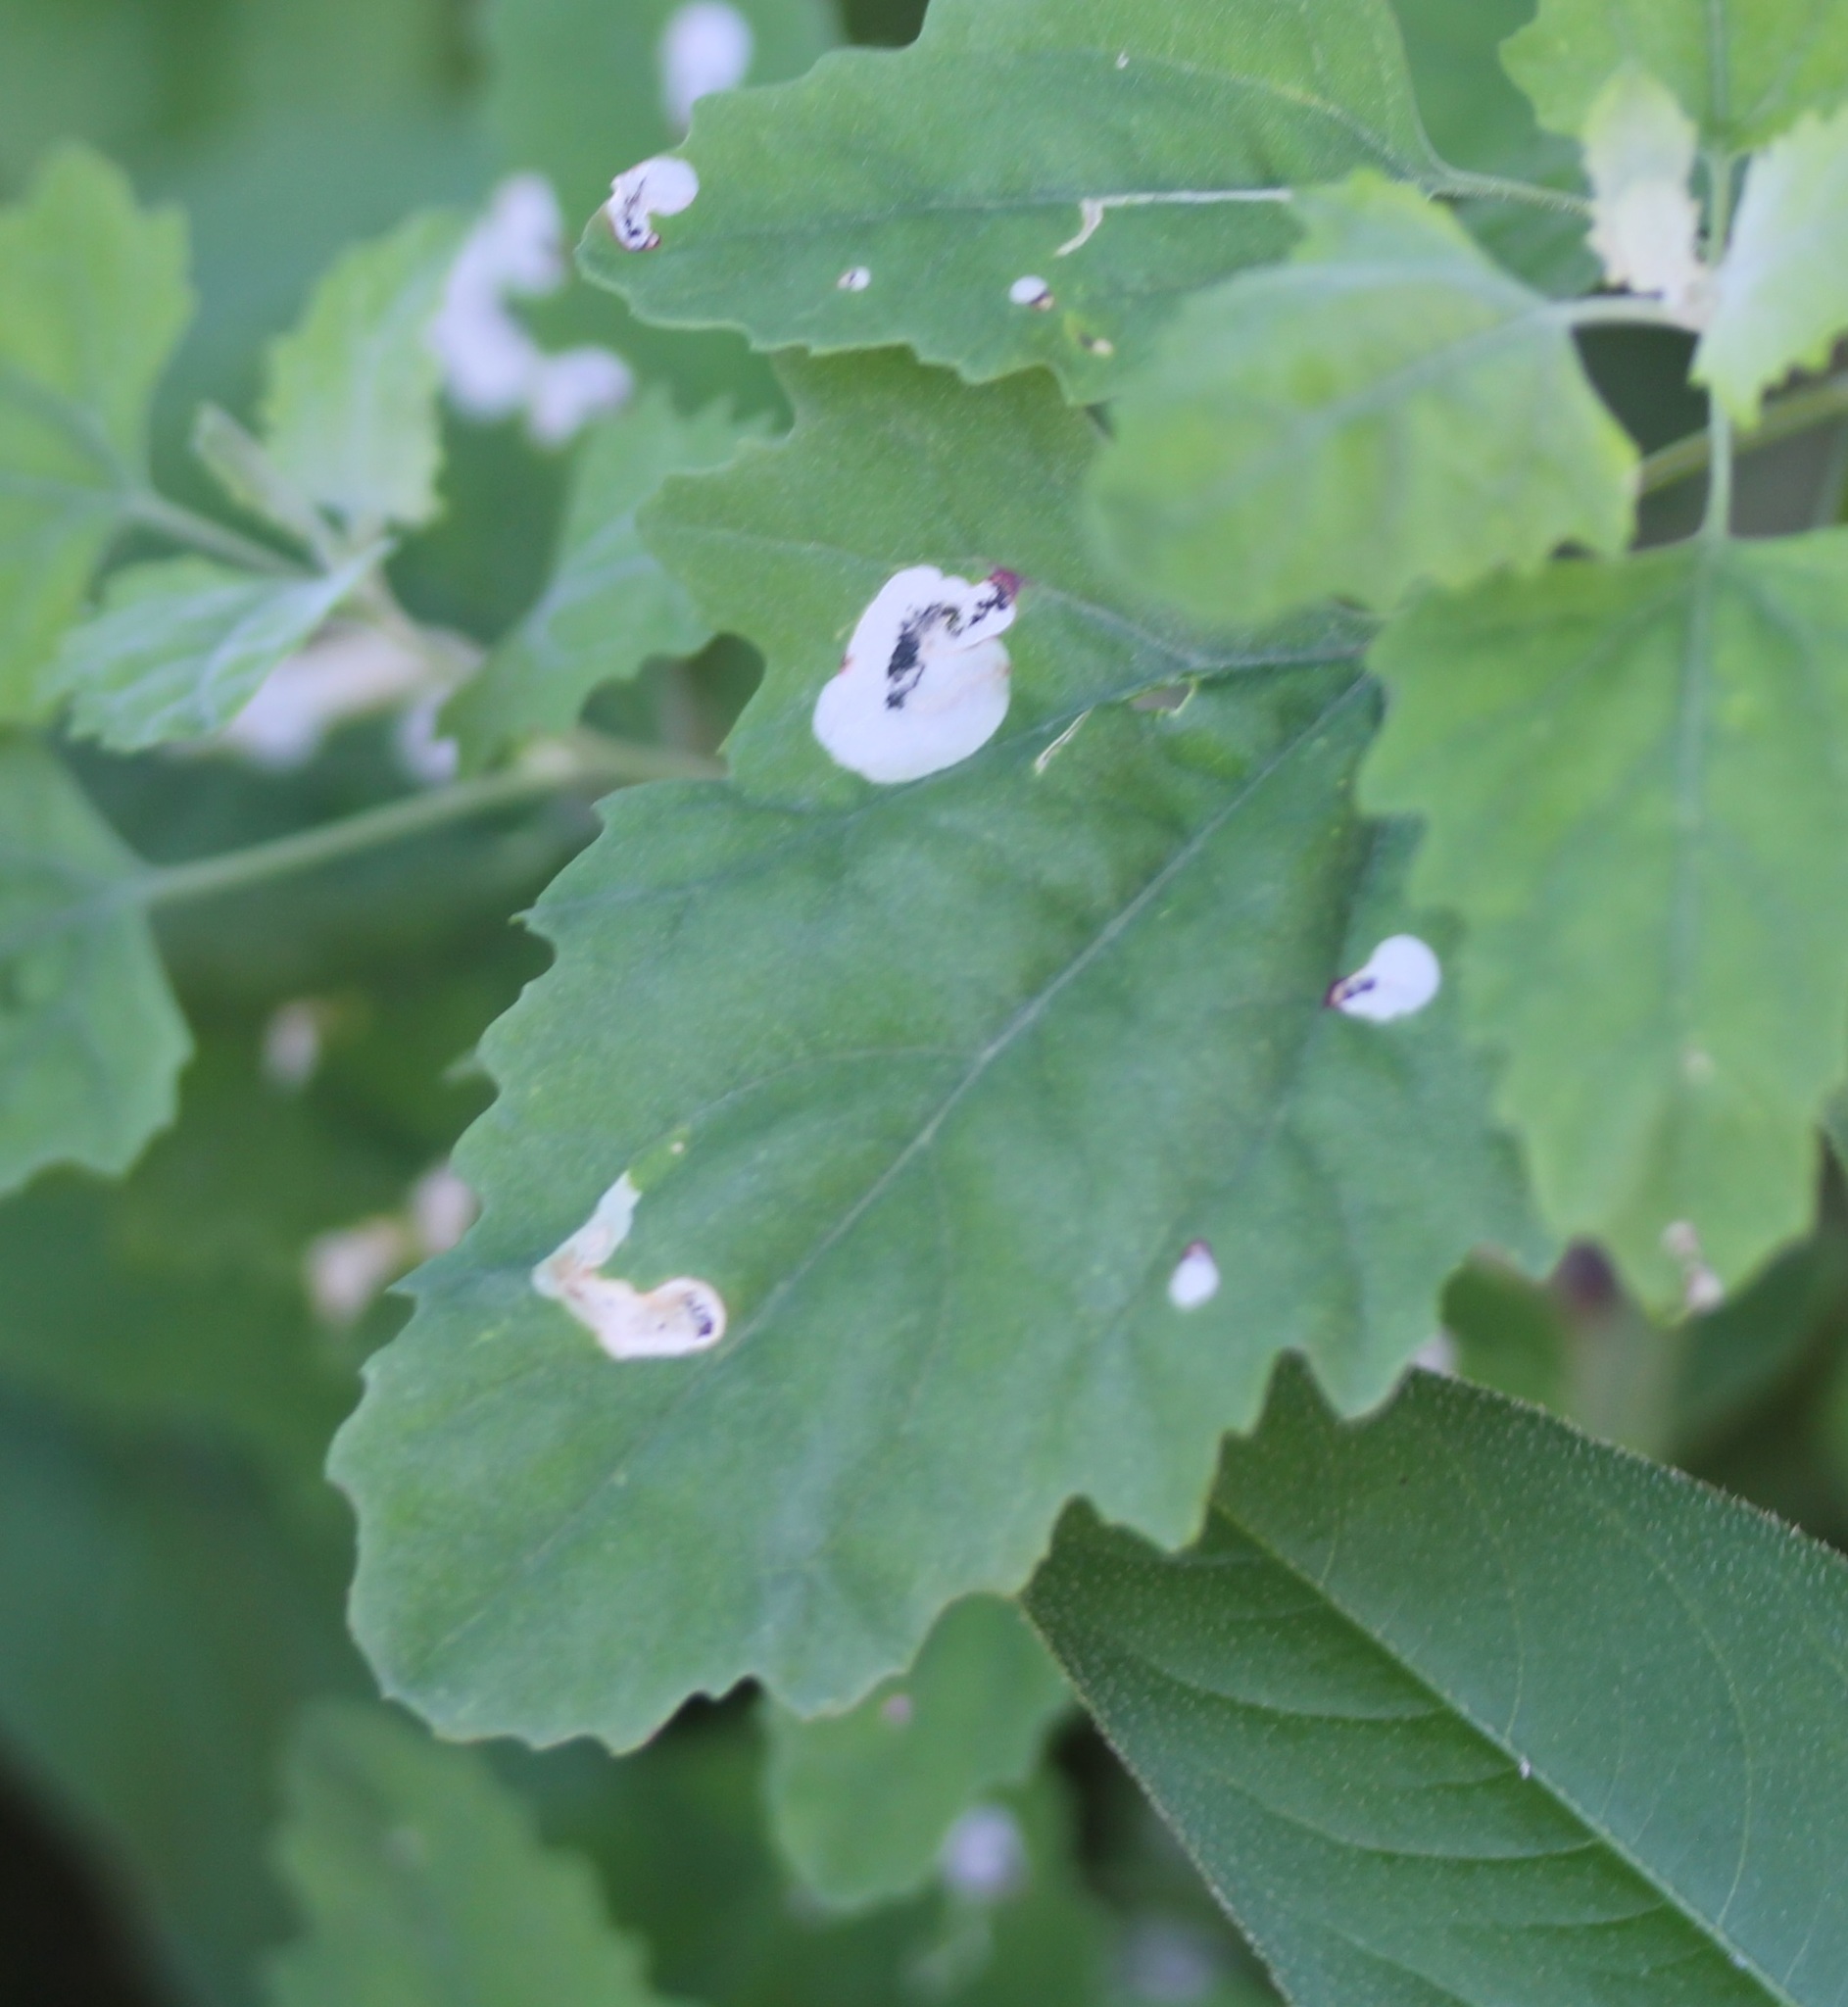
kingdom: Animalia
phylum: Arthropoda
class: Insecta
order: Lepidoptera
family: Gelechiidae
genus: Chrysoesthia
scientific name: Chrysoesthia sexguttella
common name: Moth
